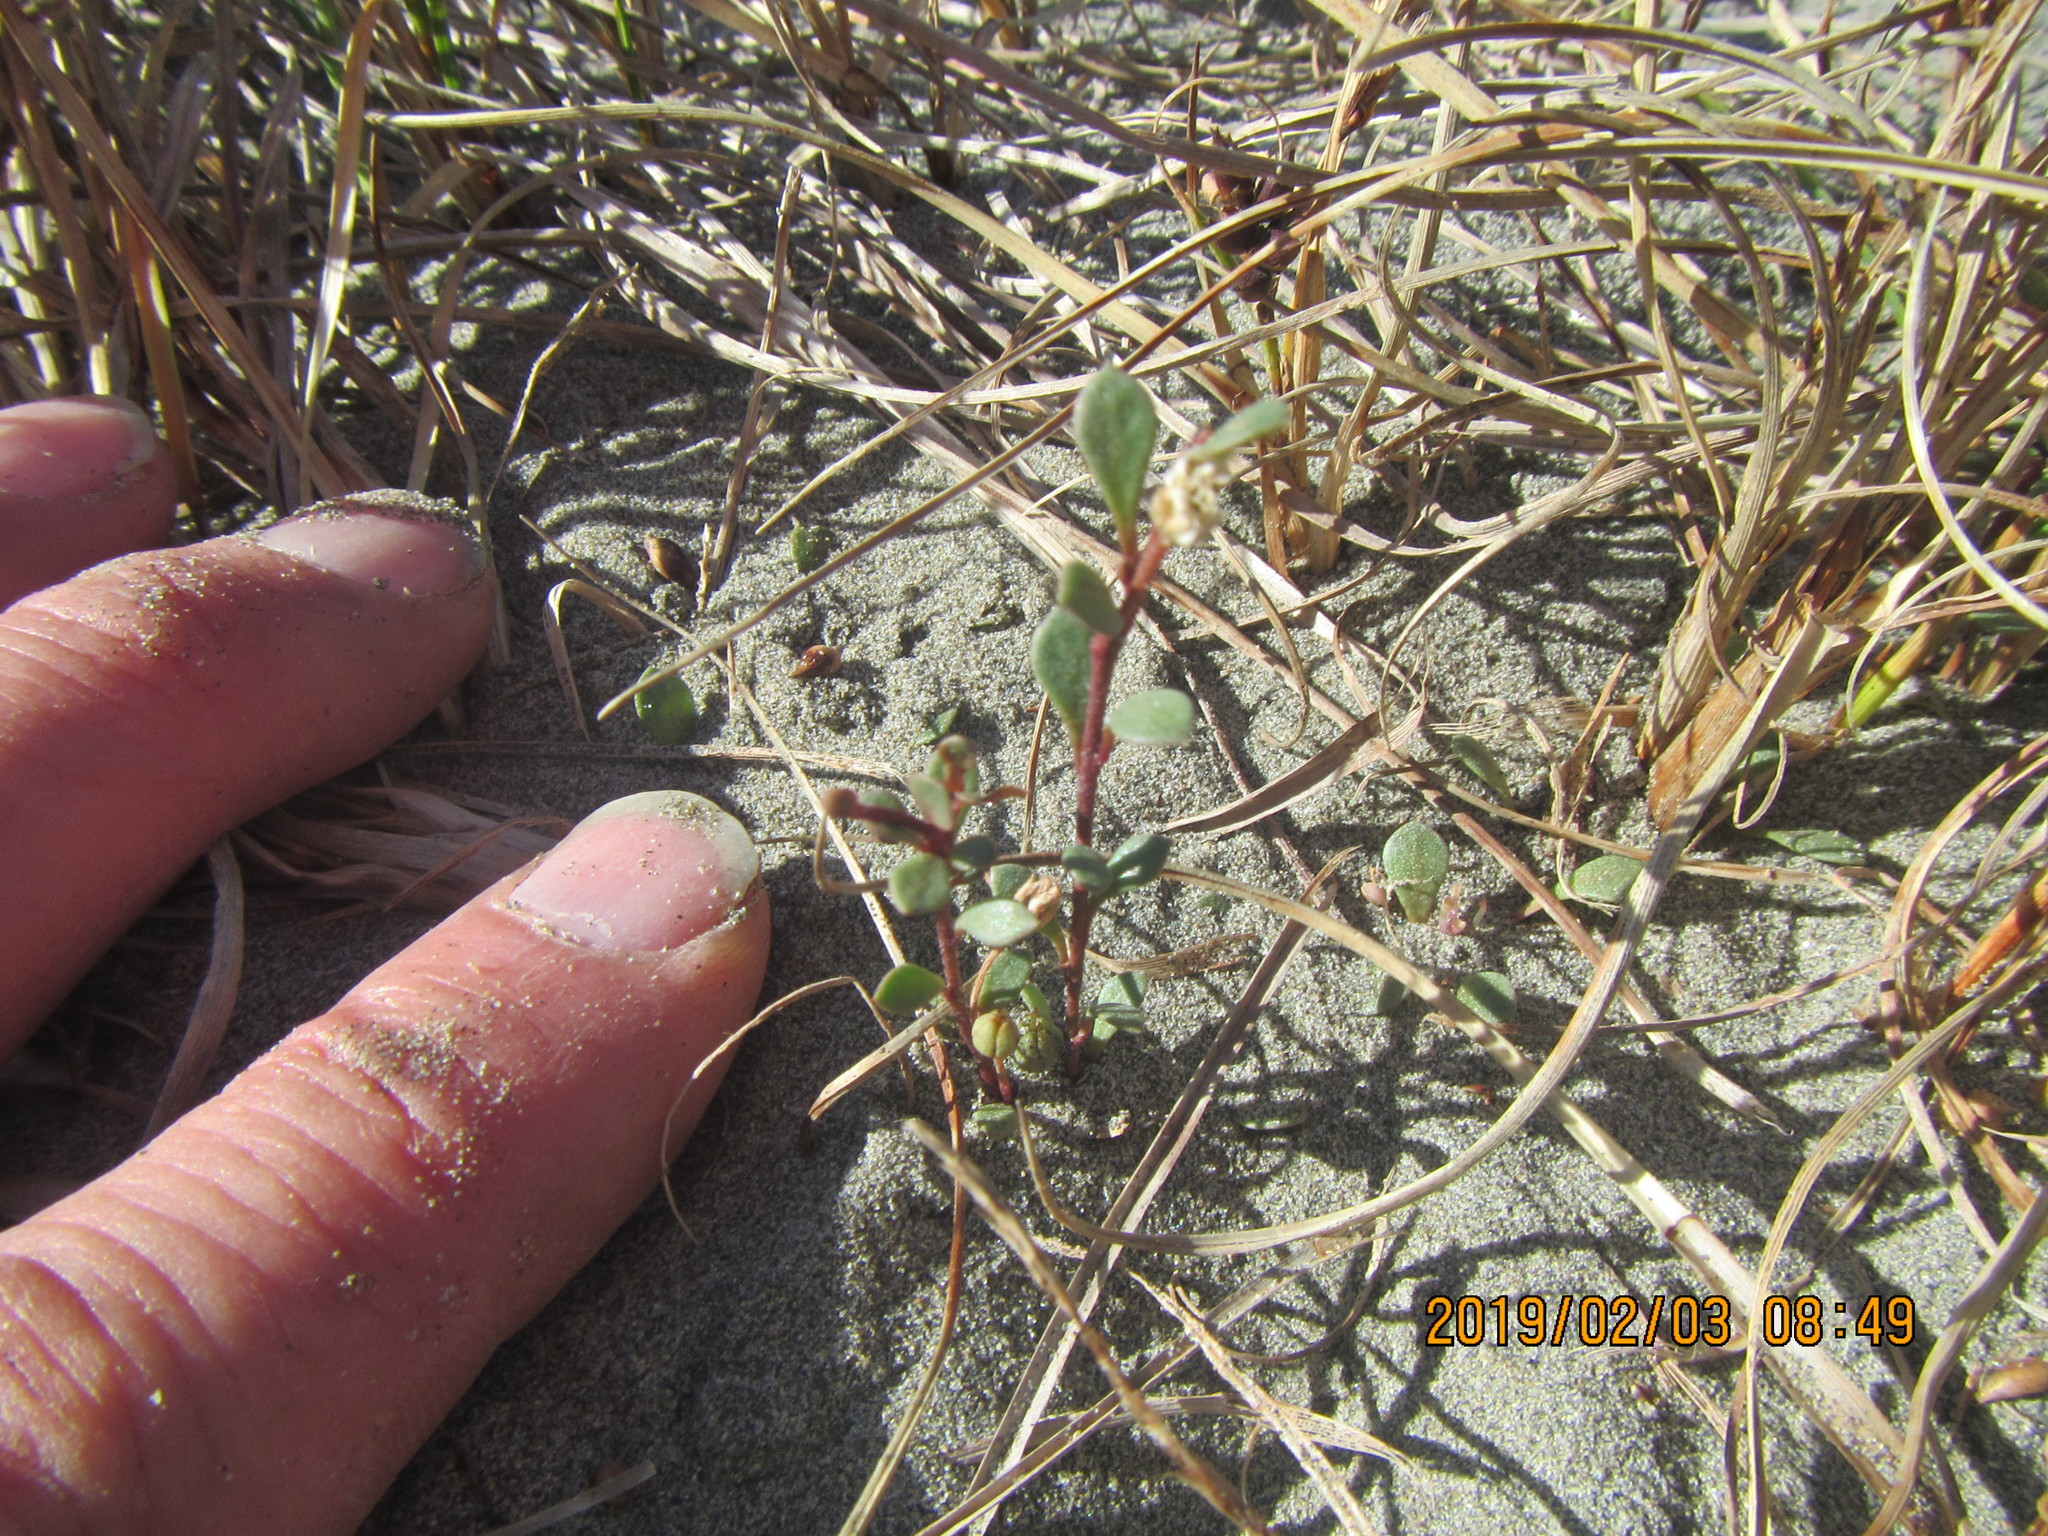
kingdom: Plantae
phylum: Tracheophyta
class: Magnoliopsida
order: Ericales
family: Primulaceae
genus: Samolus
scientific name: Samolus repens
